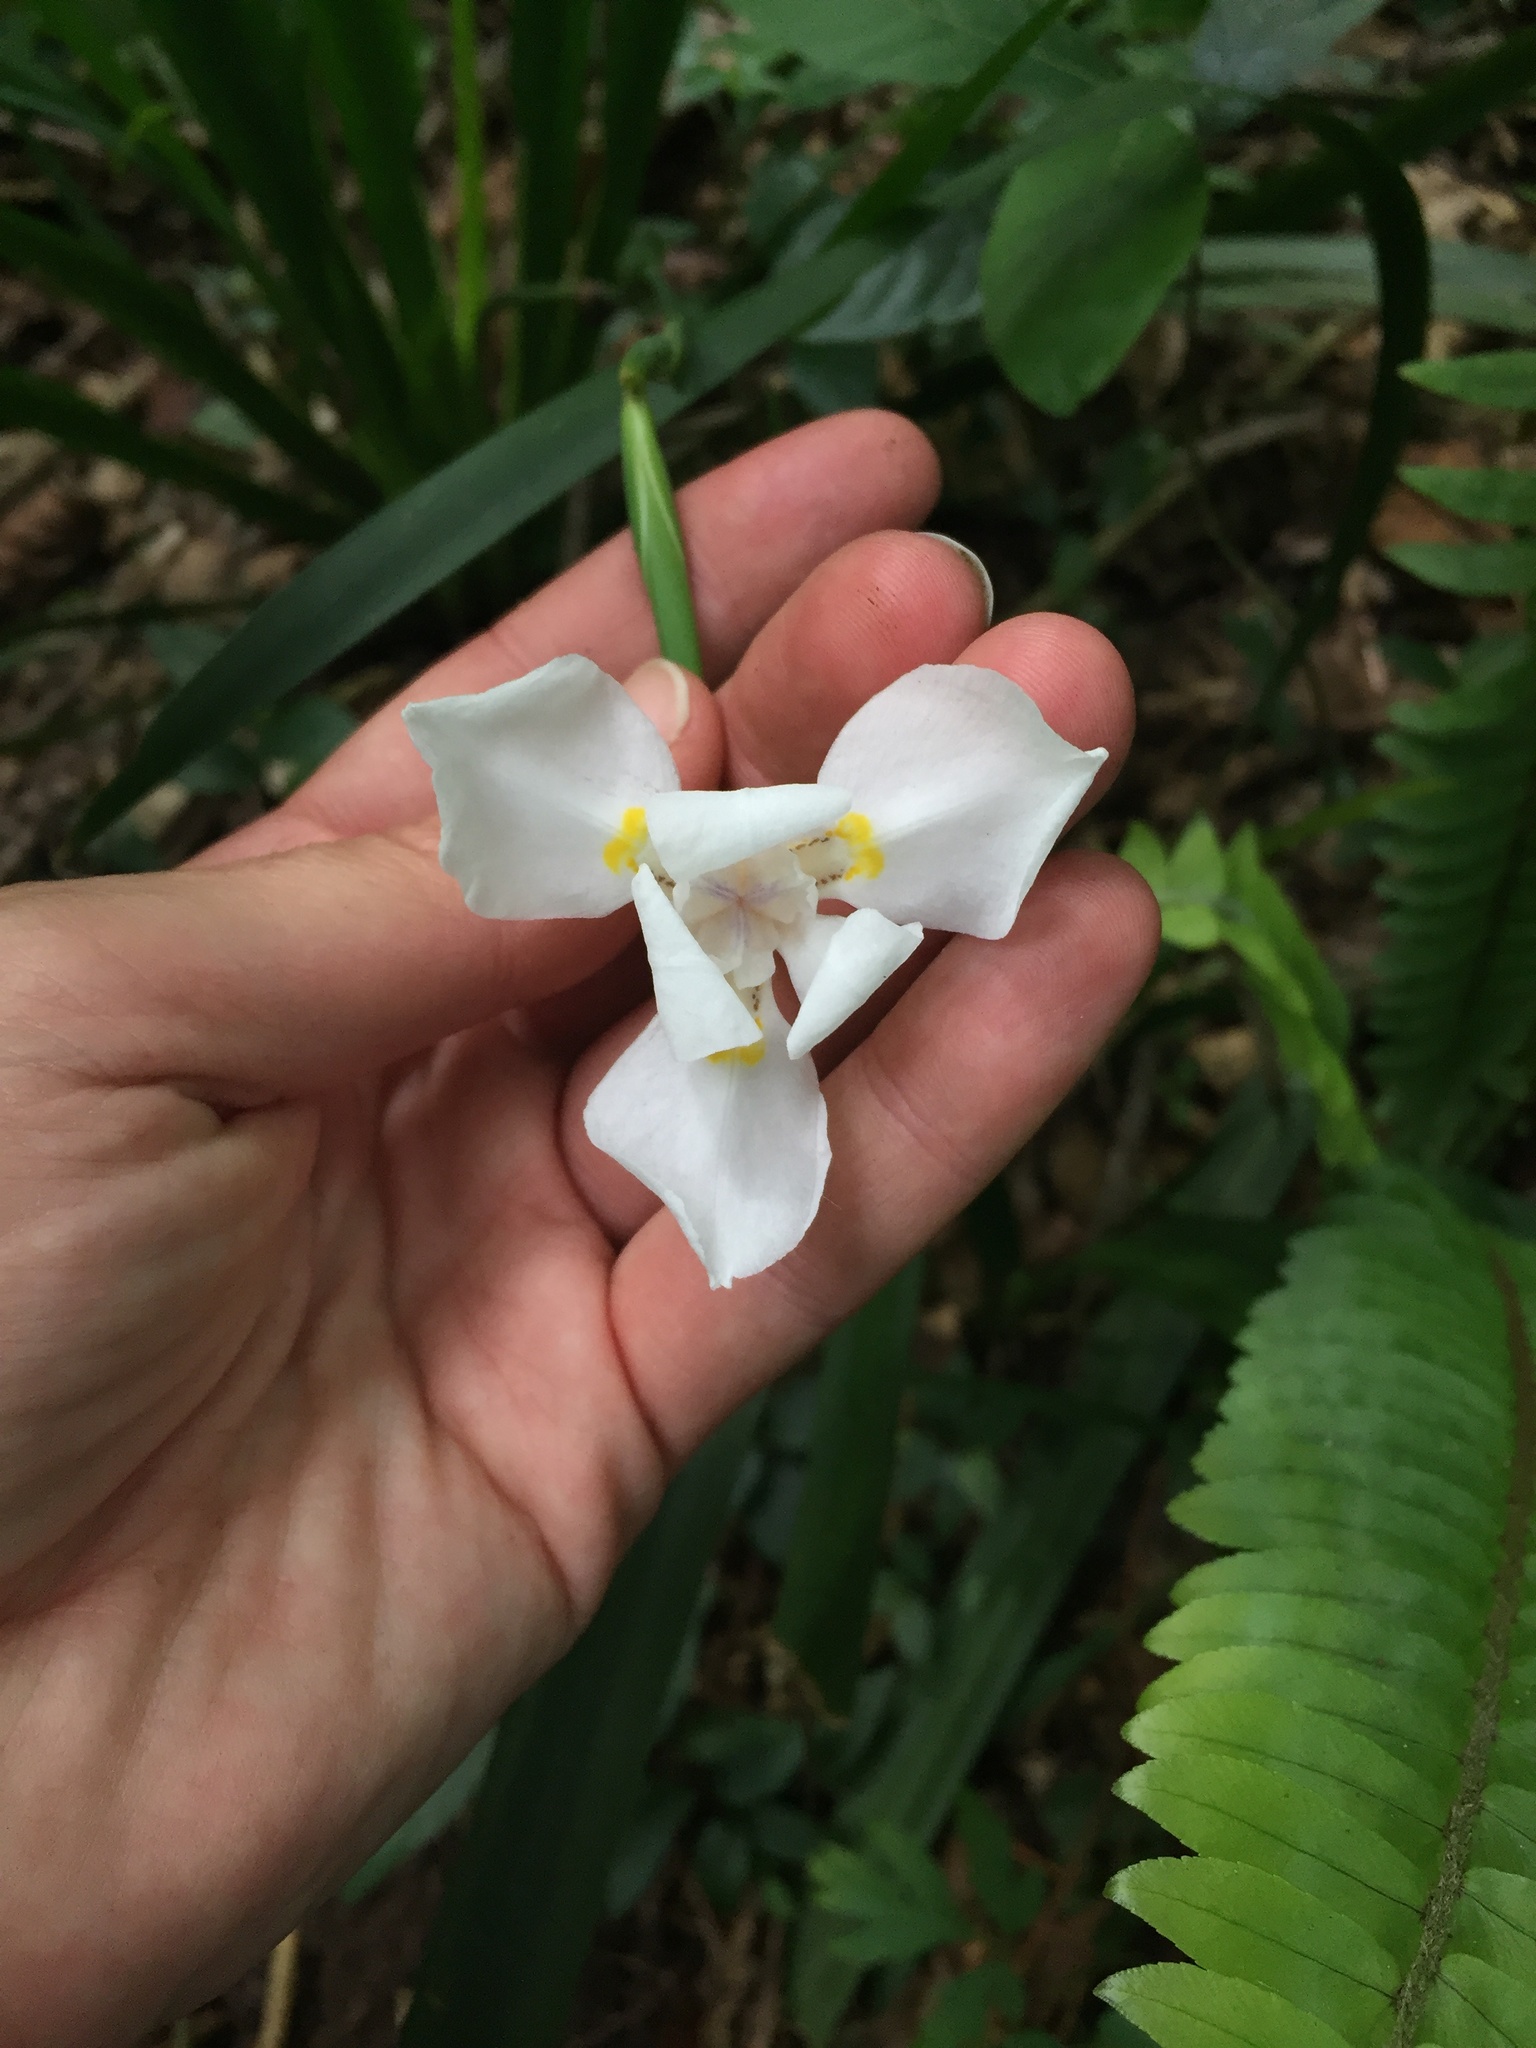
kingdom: Plantae
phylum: Tracheophyta
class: Liliopsida
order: Asparagales
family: Iridaceae
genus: Dietes
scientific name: Dietes iridioides
